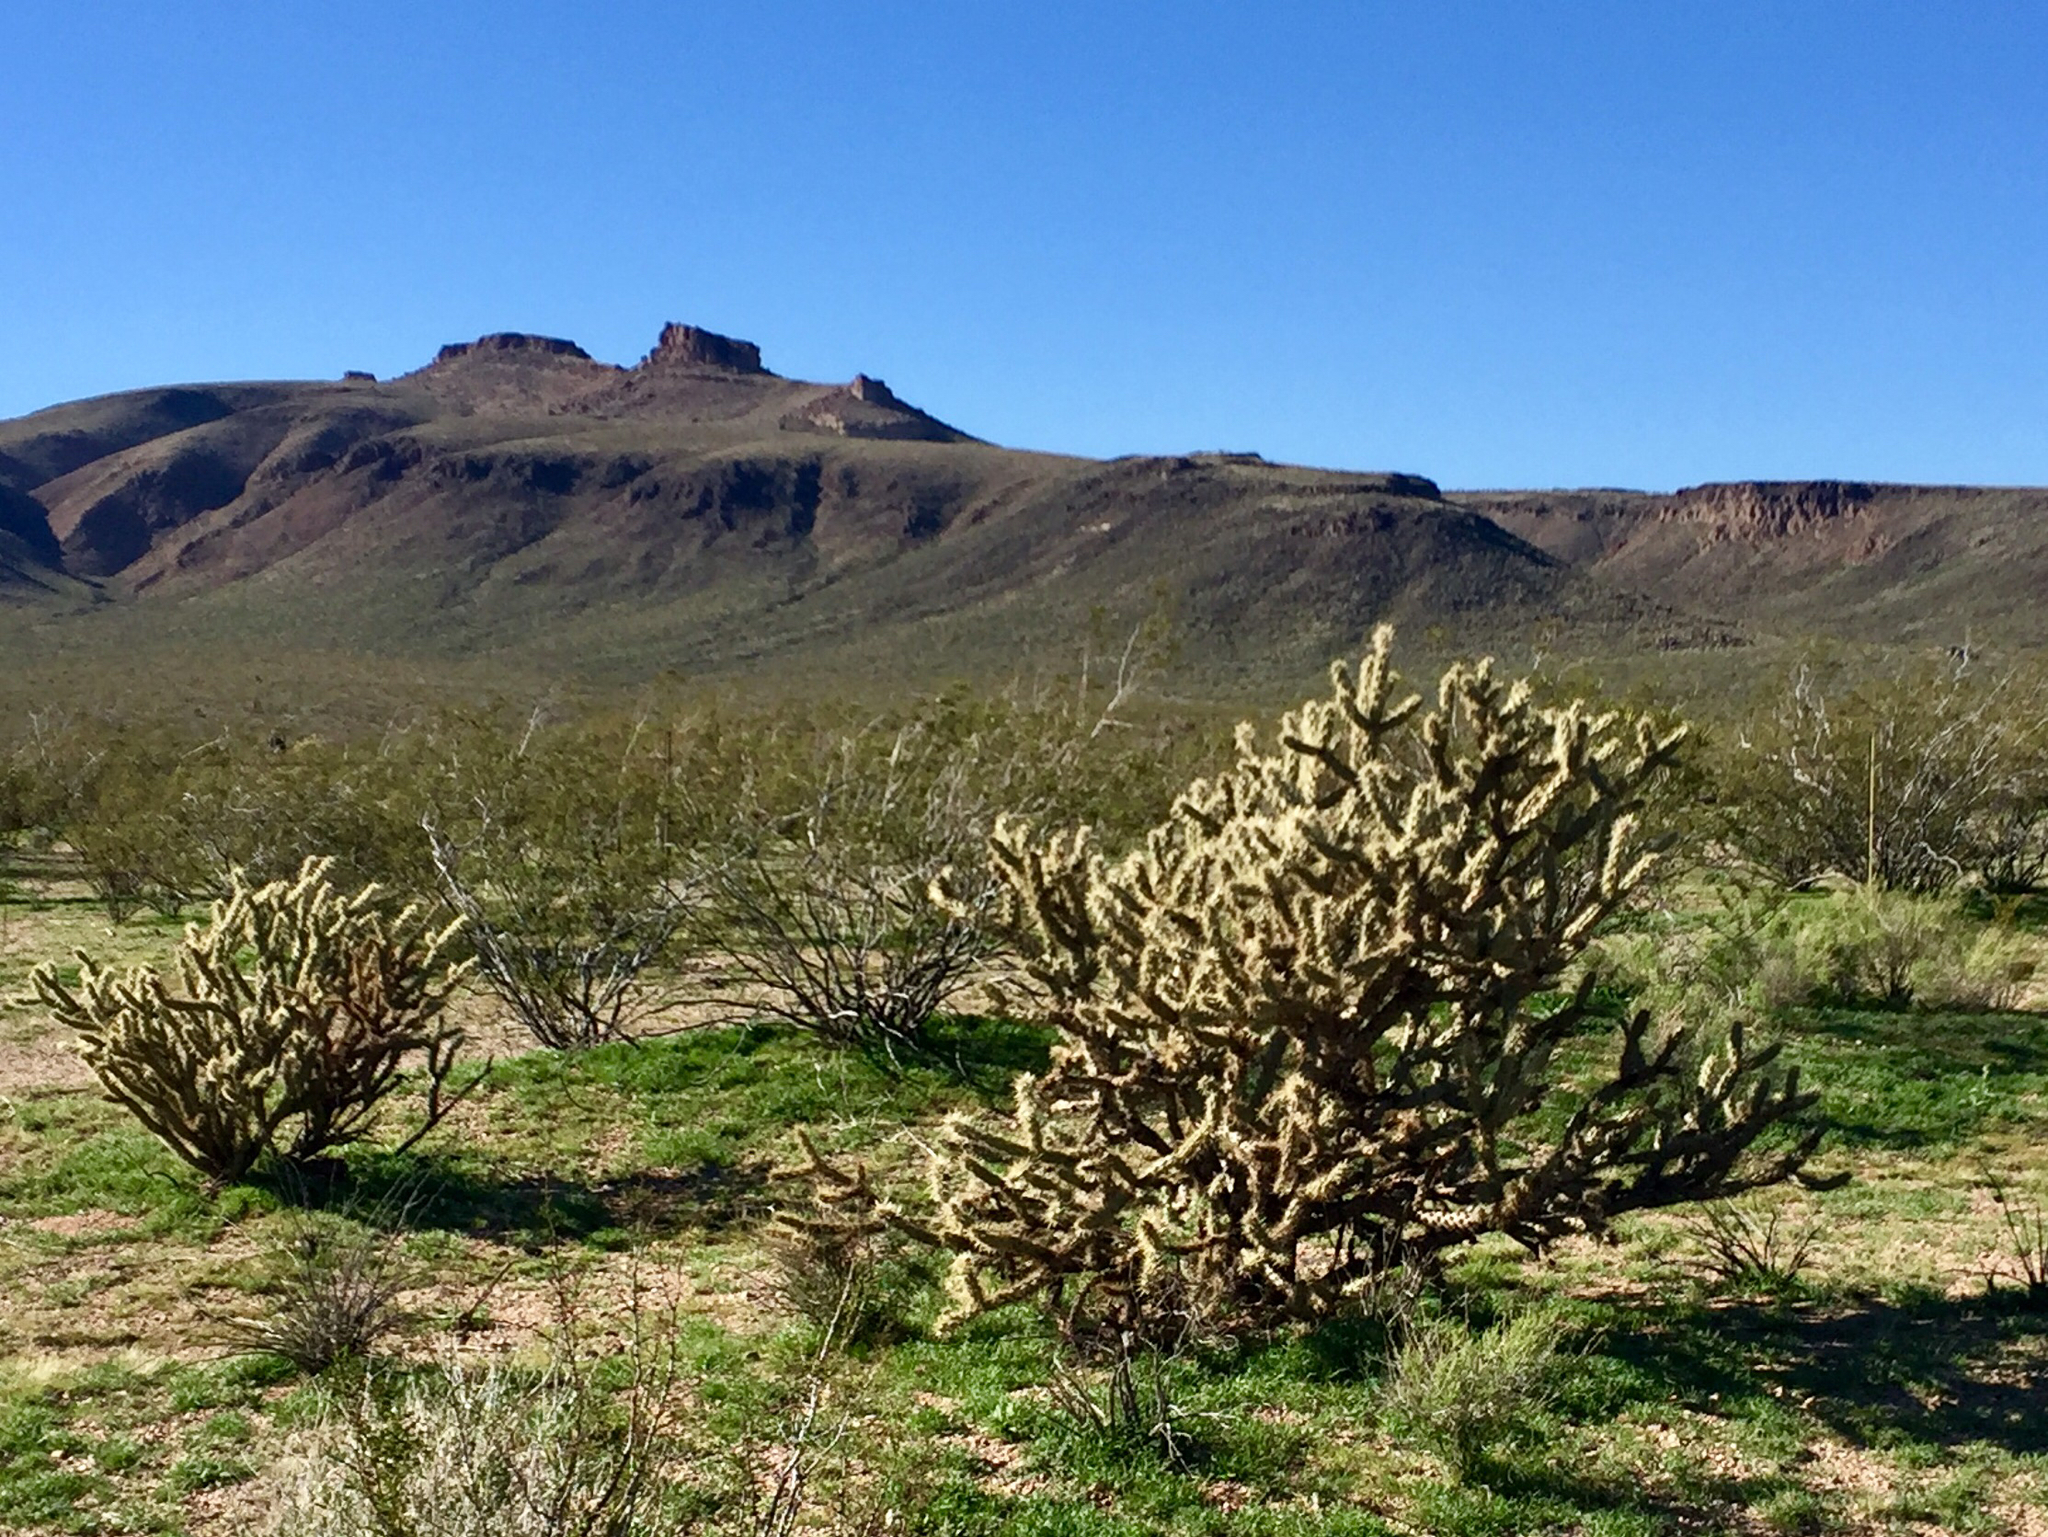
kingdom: Plantae
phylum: Tracheophyta
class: Magnoliopsida
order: Caryophyllales
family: Cactaceae
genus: Cylindropuntia
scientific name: Cylindropuntia acanthocarpa
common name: Buckhorn cholla
